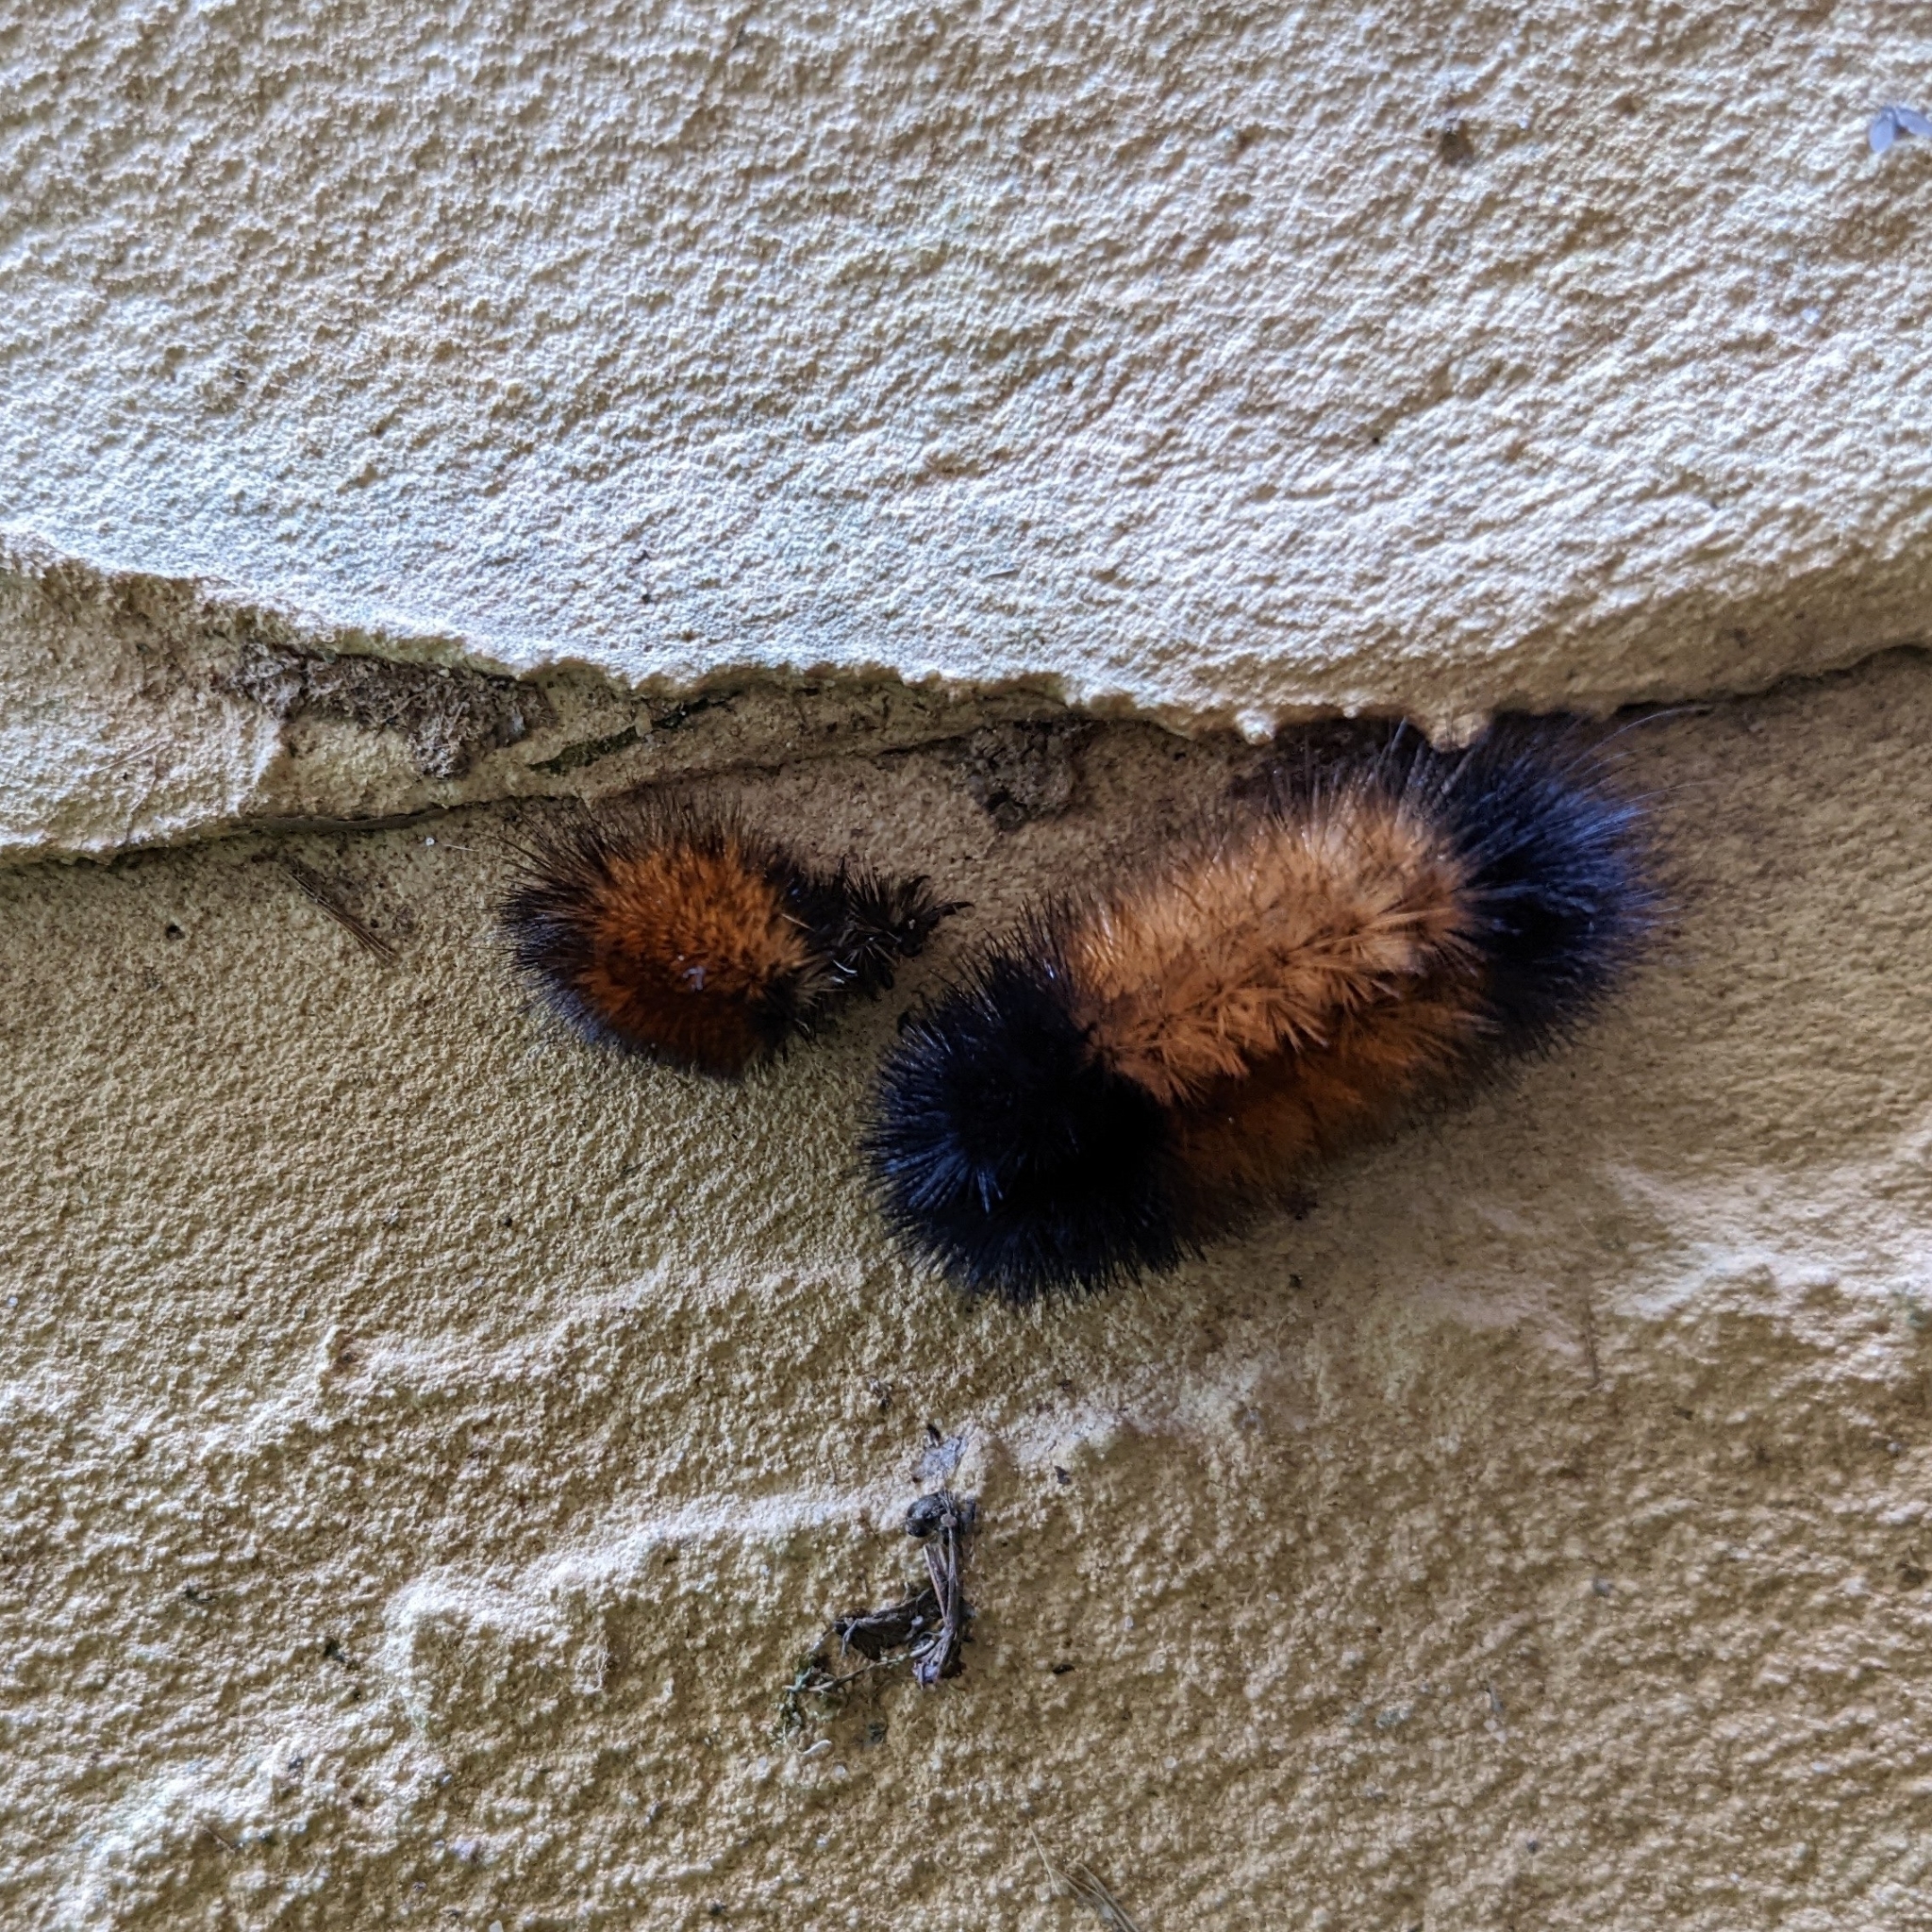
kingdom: Animalia
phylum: Arthropoda
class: Insecta
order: Lepidoptera
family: Erebidae
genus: Pyrrharctia
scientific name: Pyrrharctia isabella
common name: Isabella tiger moth
